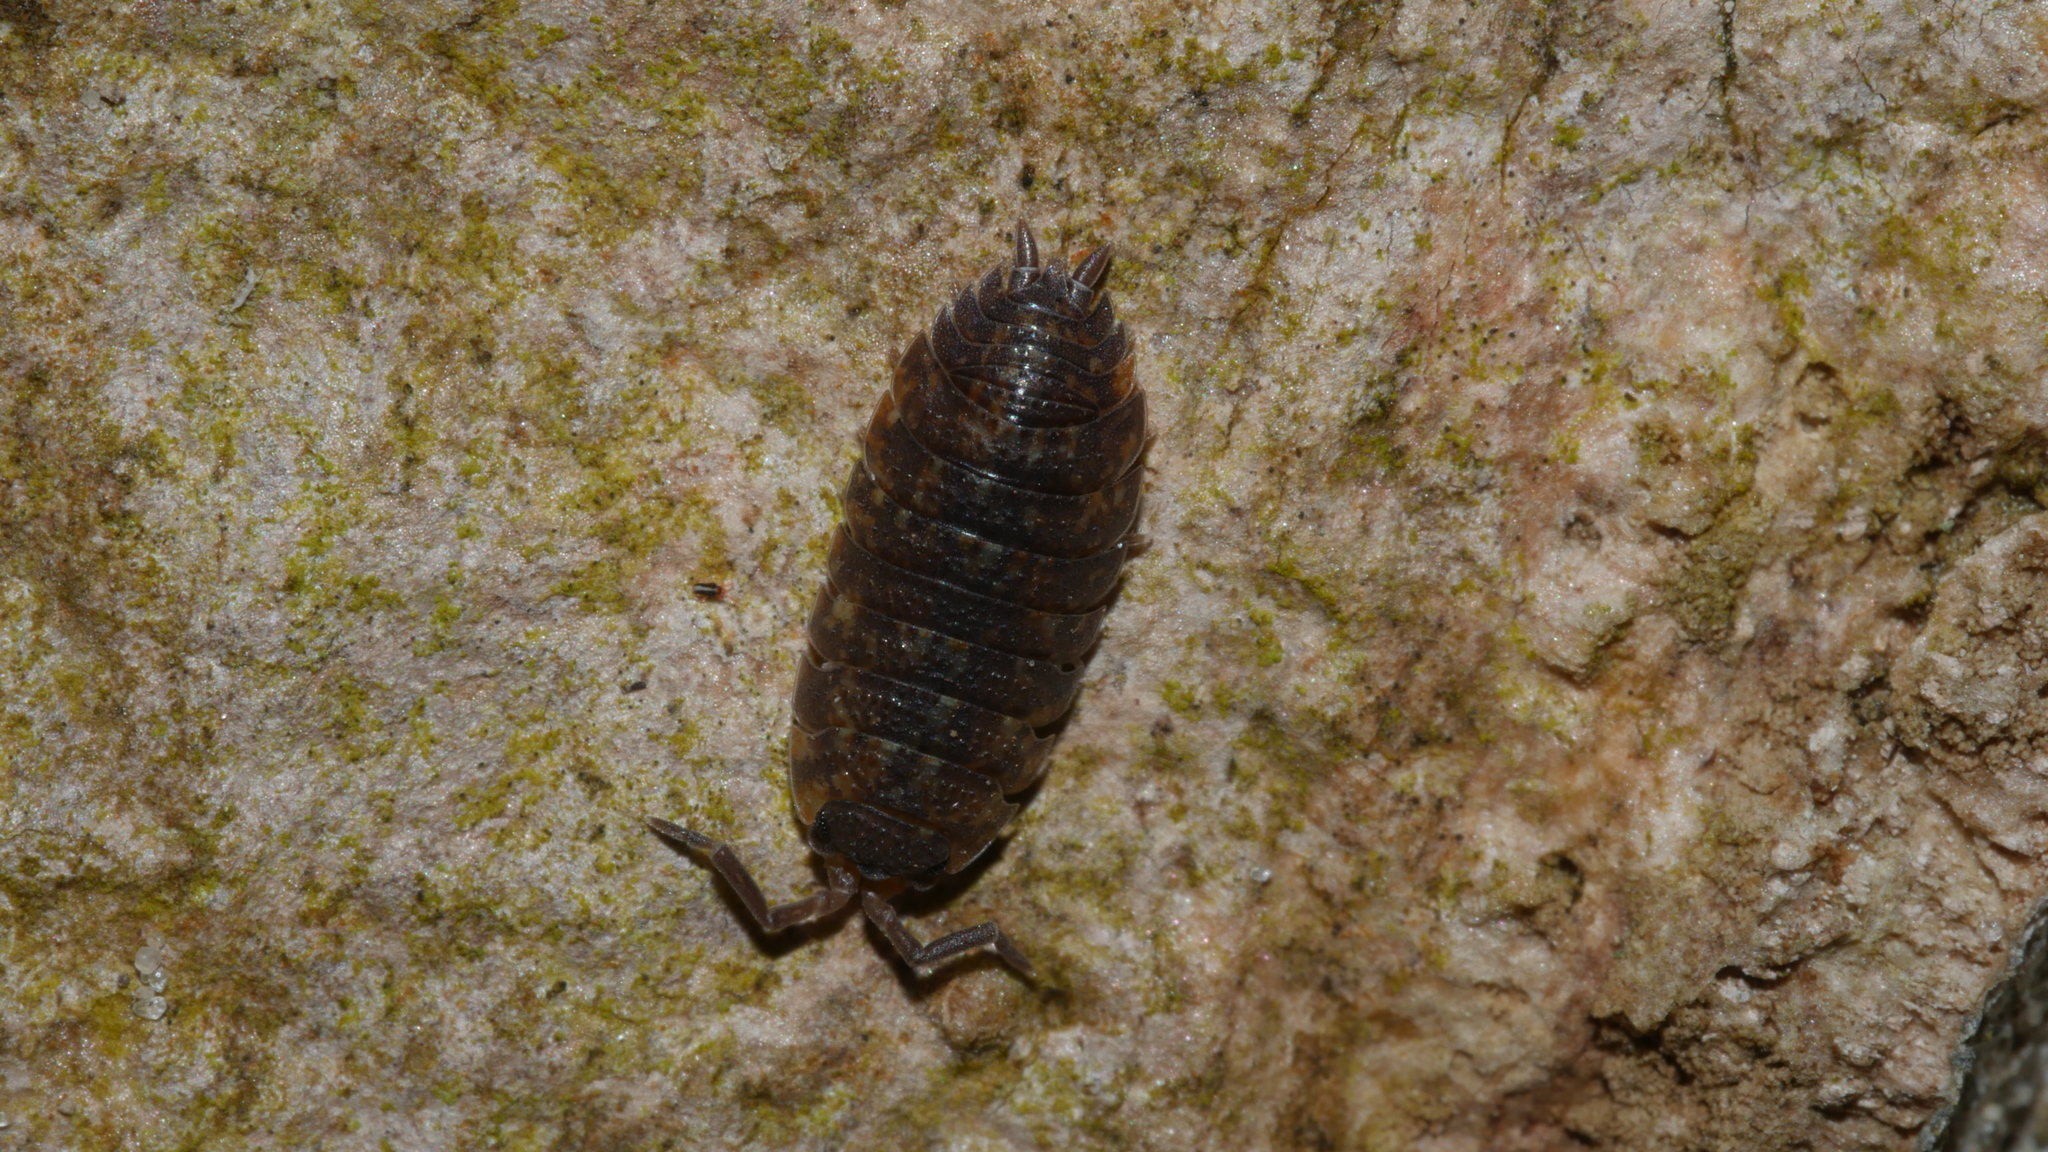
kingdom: Animalia
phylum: Arthropoda
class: Malacostraca
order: Isopoda
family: Porcellionidae
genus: Porcellio
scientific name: Porcellio scaber
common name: Common rough woodlouse
